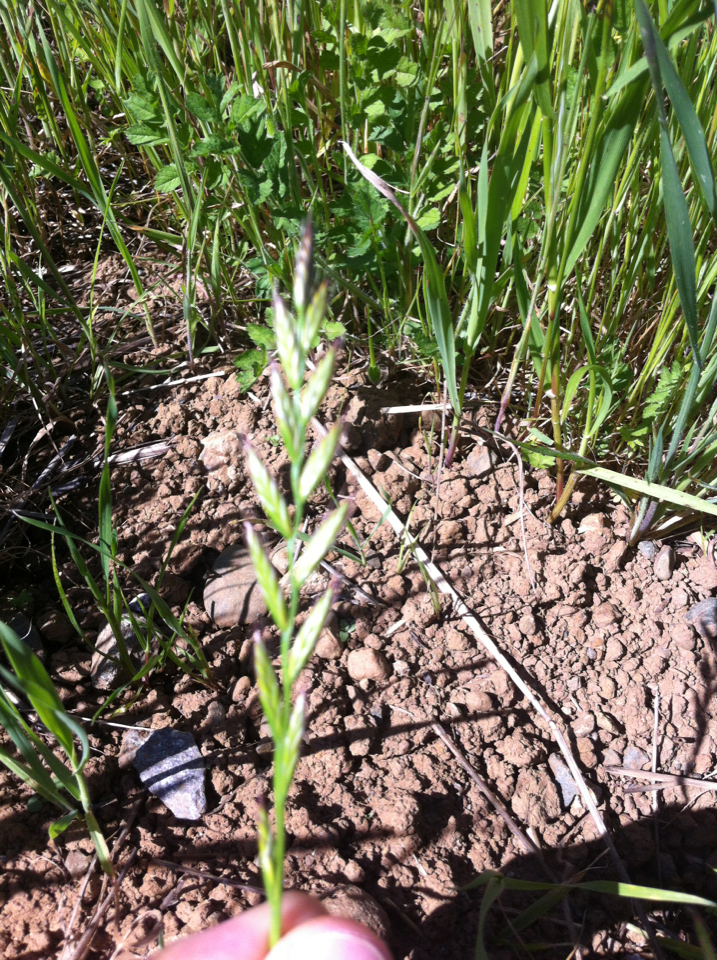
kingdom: Plantae
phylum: Tracheophyta
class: Liliopsida
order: Poales
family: Poaceae
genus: Lolium
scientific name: Lolium perenne
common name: Perennial ryegrass
